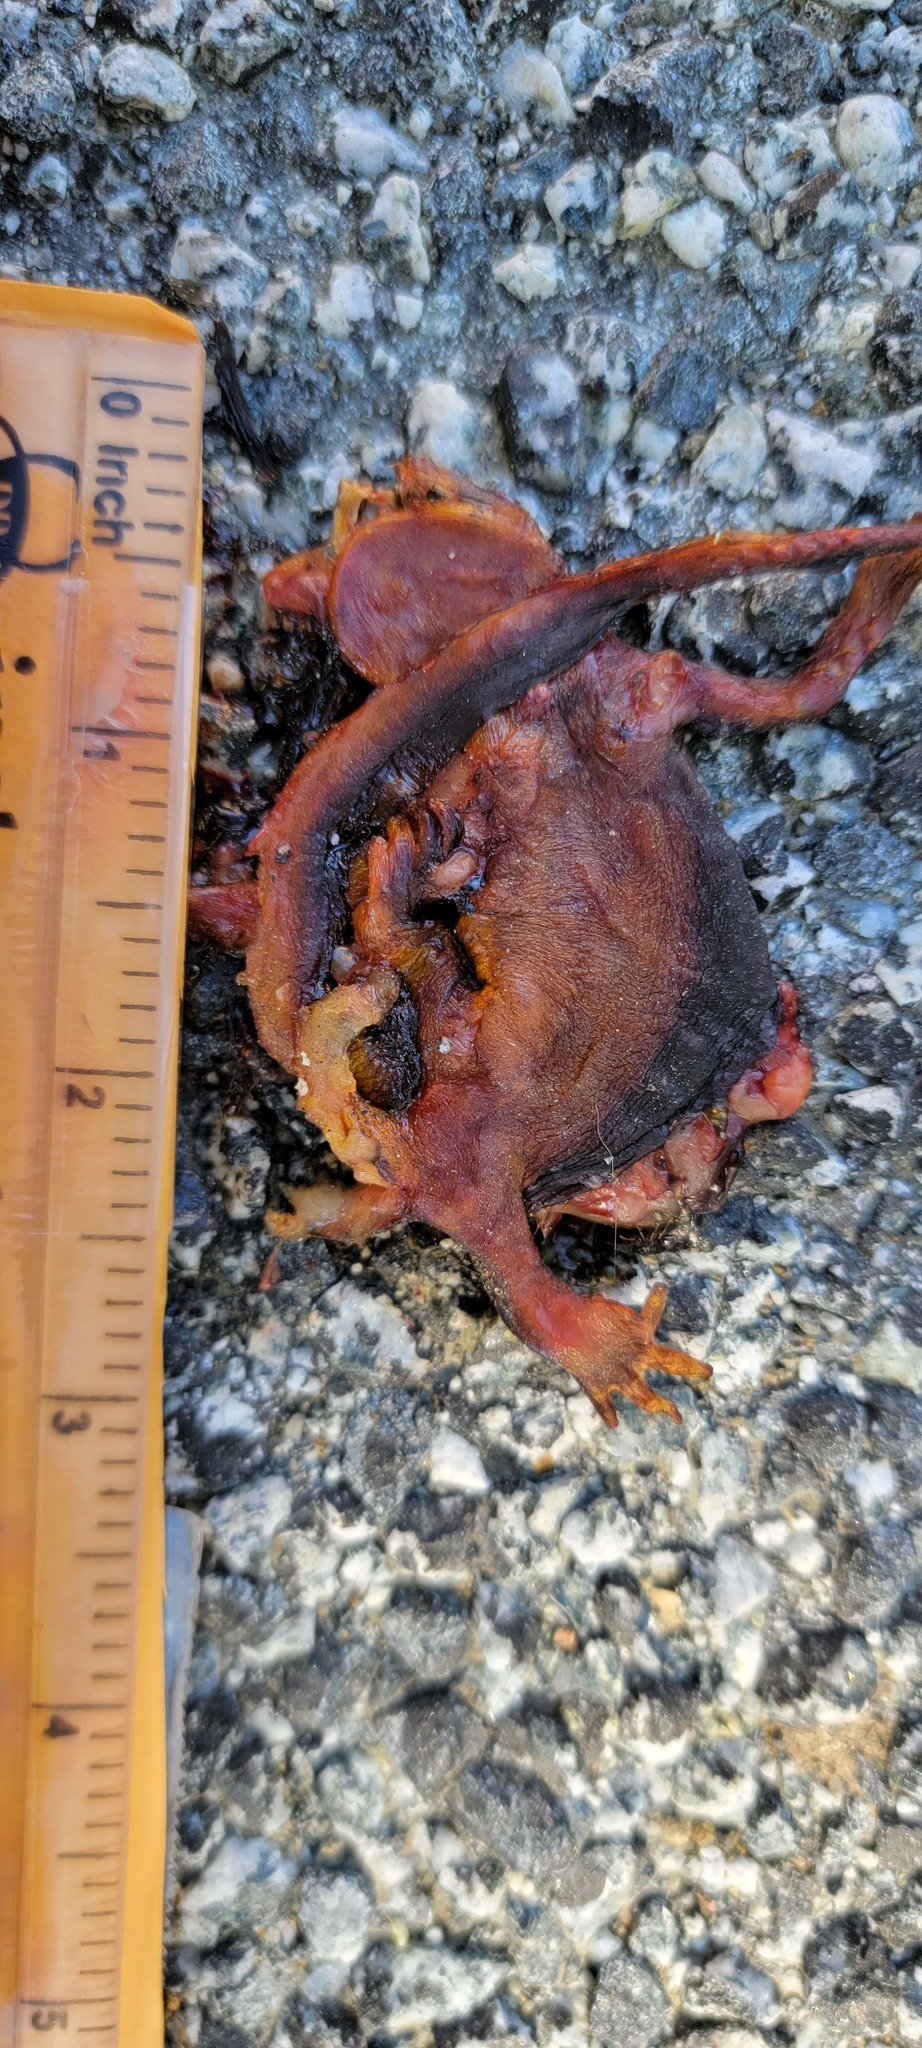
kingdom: Animalia
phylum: Chordata
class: Amphibia
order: Caudata
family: Salamandridae
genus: Taricha
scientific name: Taricha
